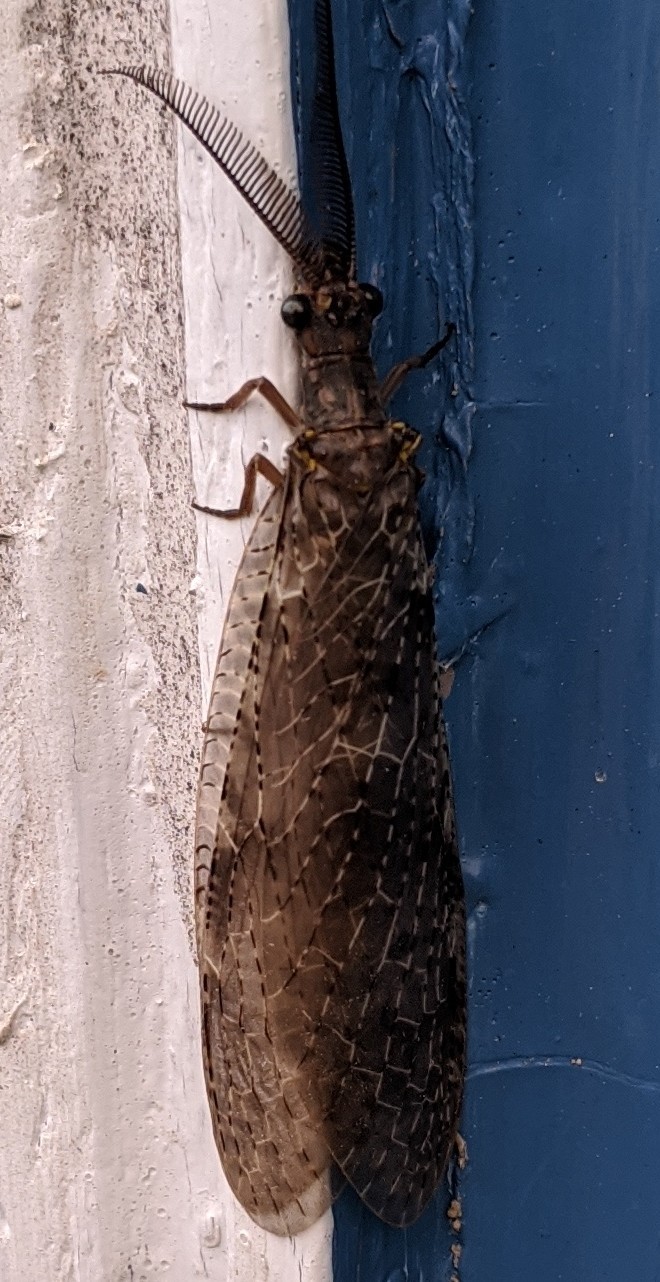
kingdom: Animalia
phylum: Arthropoda
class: Insecta
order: Megaloptera
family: Corydalidae
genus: Chauliodes
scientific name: Chauliodes pectinicornis
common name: Summer fishfly
